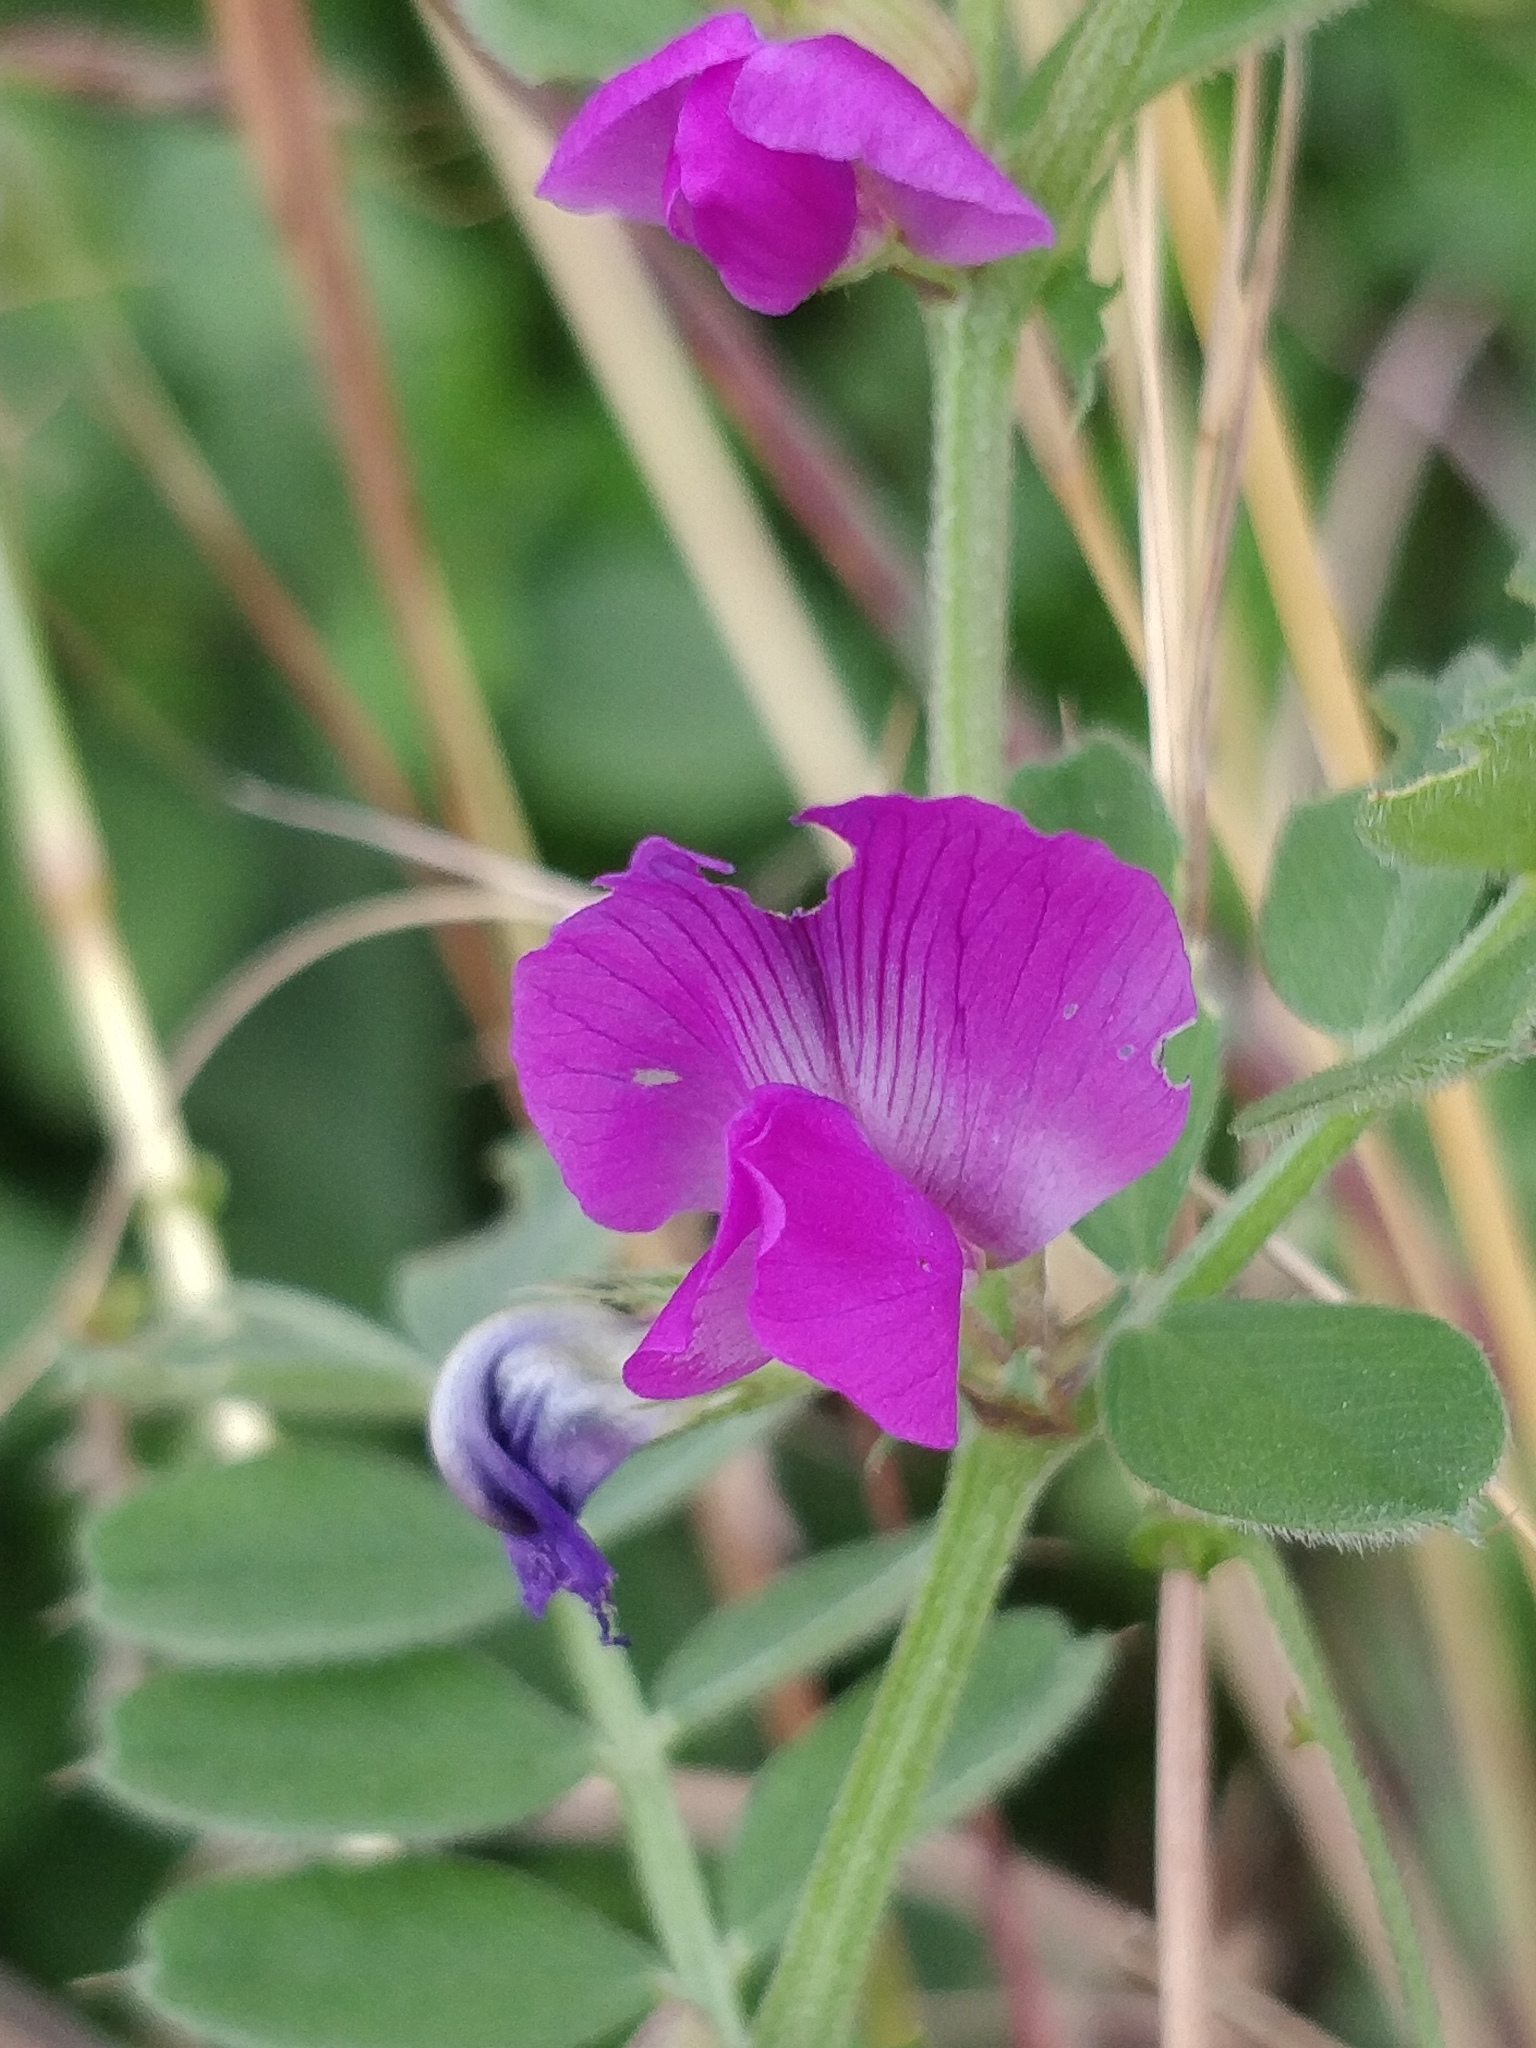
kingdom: Plantae
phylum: Tracheophyta
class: Magnoliopsida
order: Fabales
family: Fabaceae
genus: Vicia
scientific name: Vicia sativa
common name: Garden vetch
